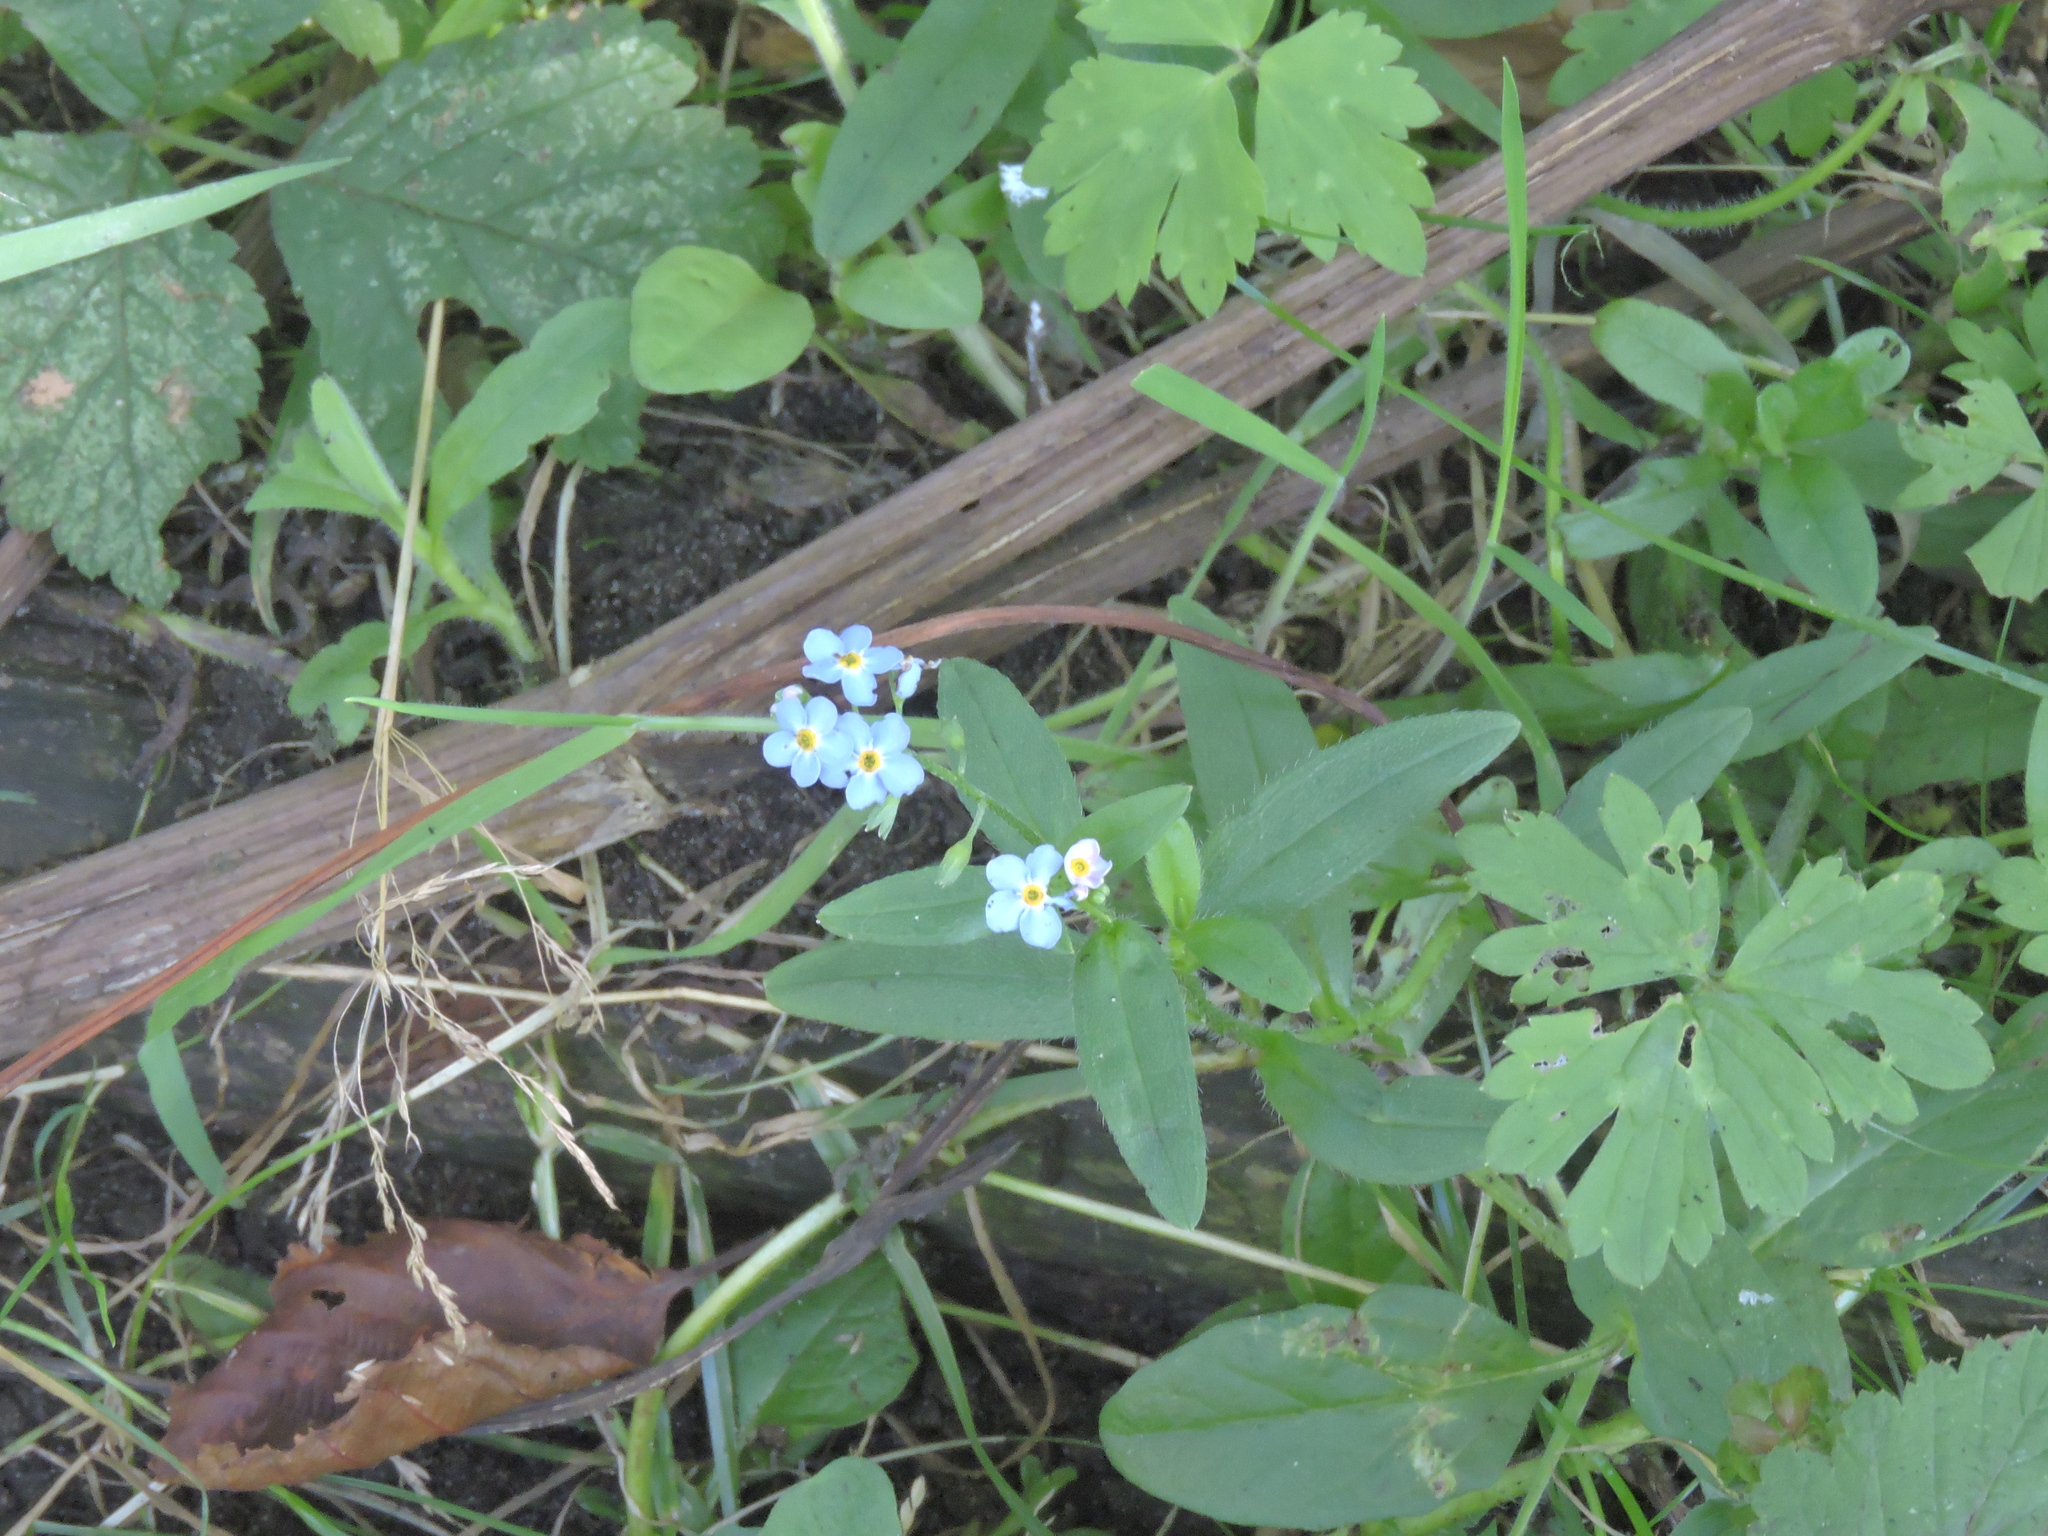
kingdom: Plantae
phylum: Tracheophyta
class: Magnoliopsida
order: Boraginales
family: Boraginaceae
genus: Myosotis
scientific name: Myosotis sylvatica
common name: Wood forget-me-not
